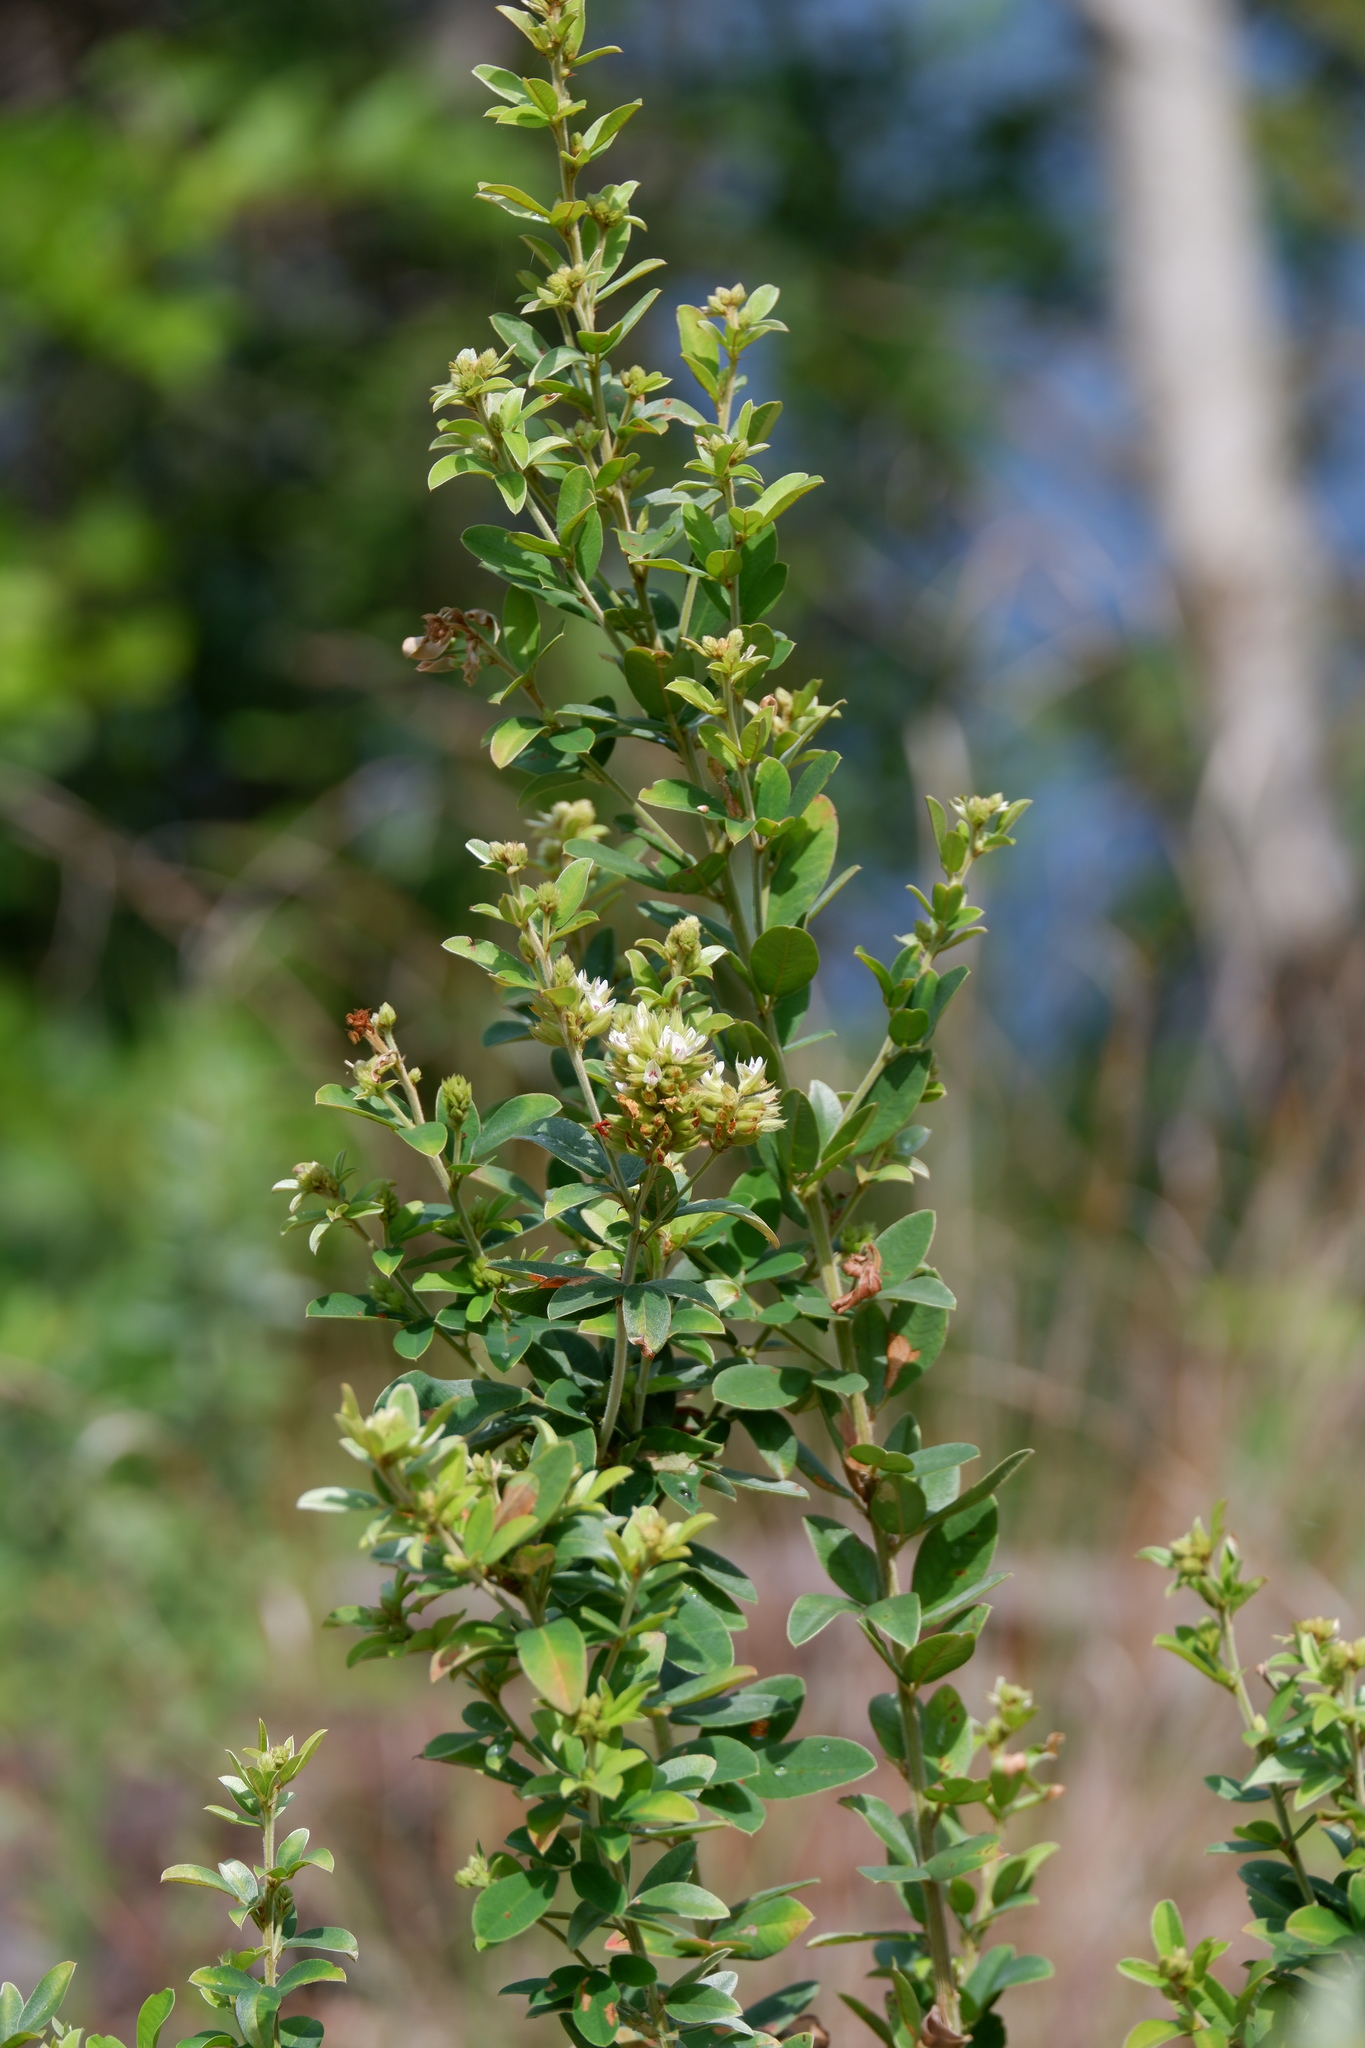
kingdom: Plantae
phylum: Tracheophyta
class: Magnoliopsida
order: Fabales
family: Fabaceae
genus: Lespedeza
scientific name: Lespedeza longifolia
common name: Long-leaved bush-clover
